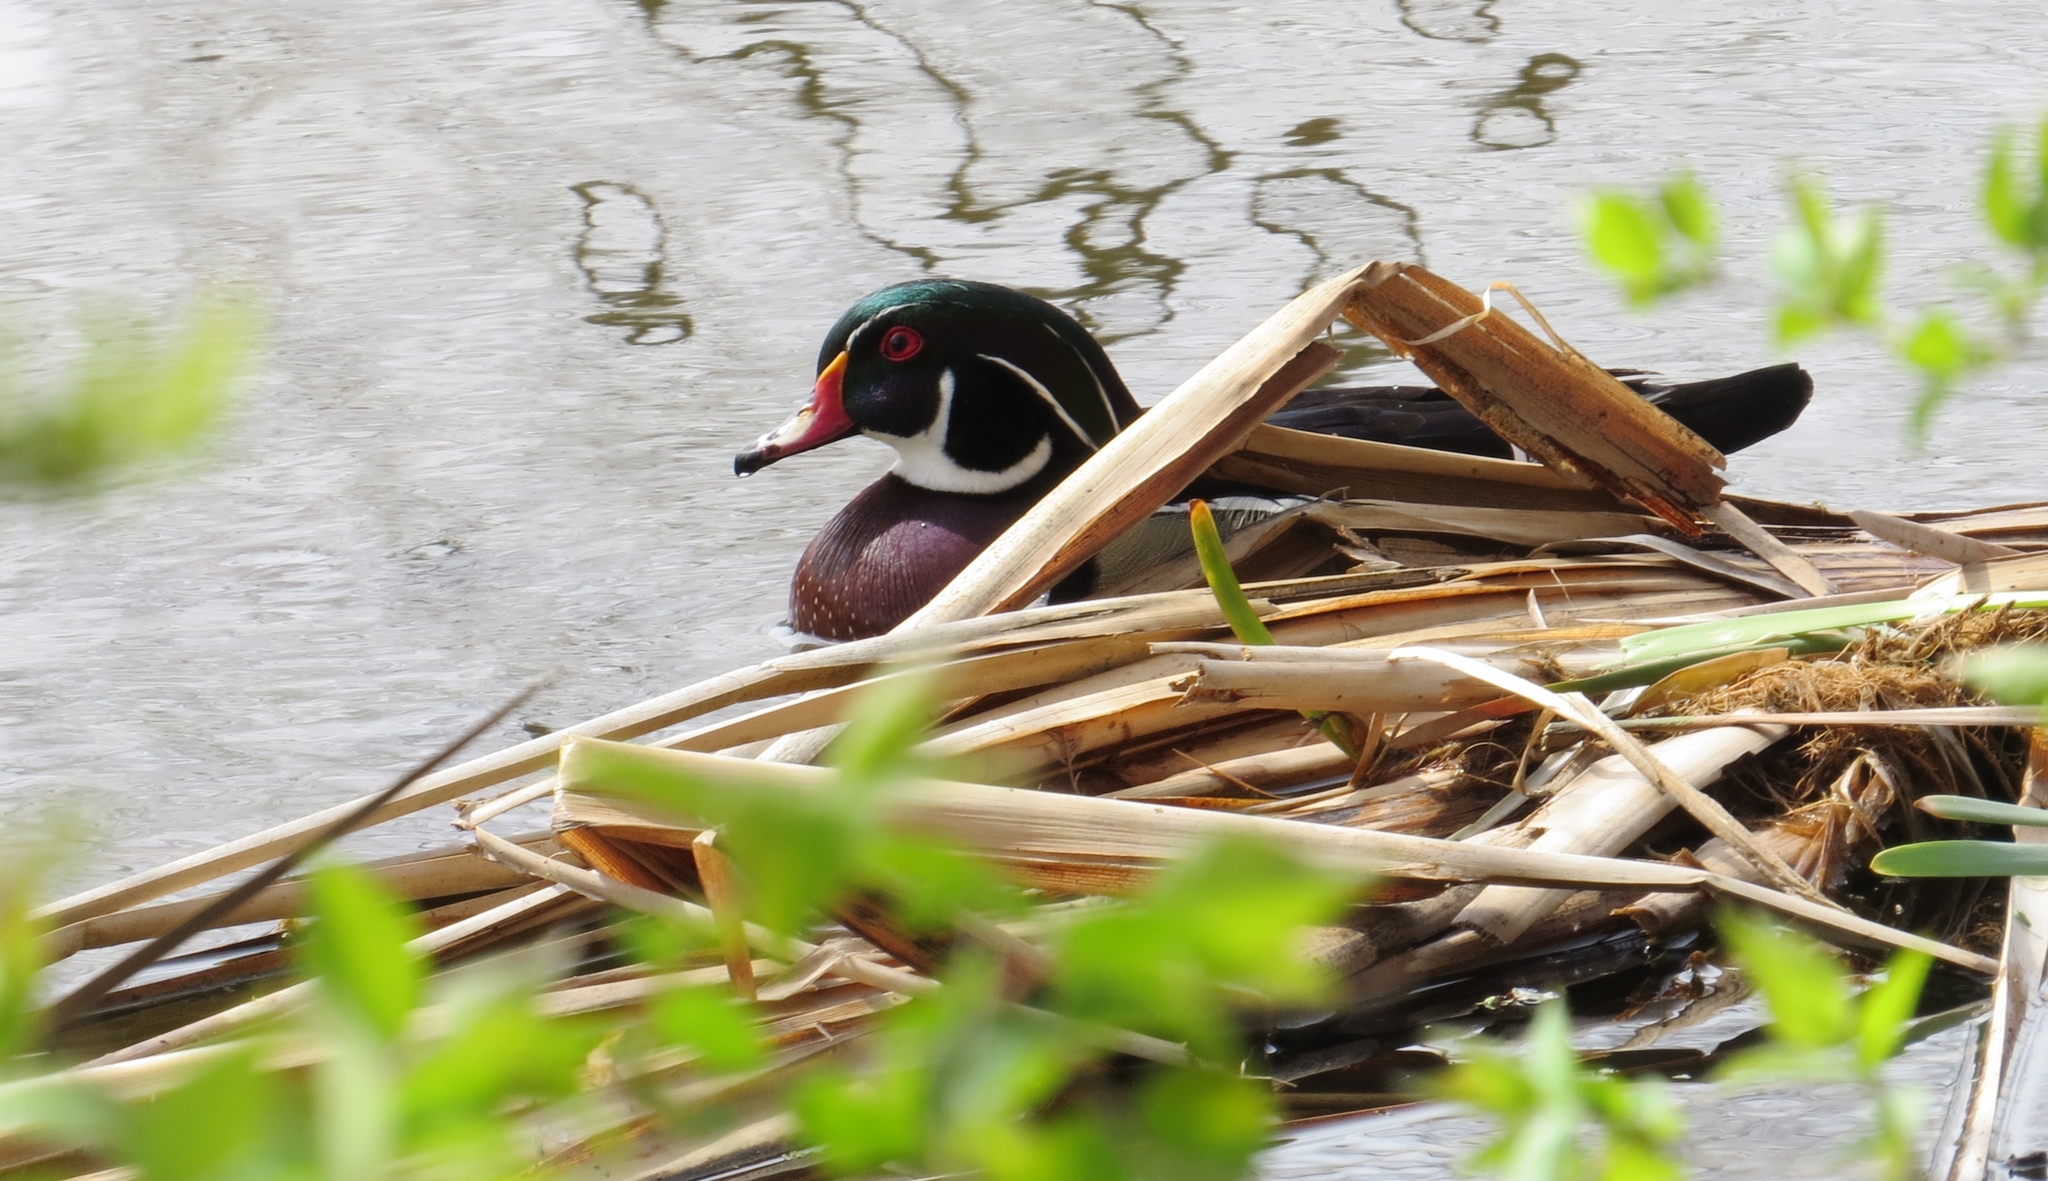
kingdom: Animalia
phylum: Chordata
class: Aves
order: Anseriformes
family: Anatidae
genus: Aix
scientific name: Aix sponsa
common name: Wood duck
